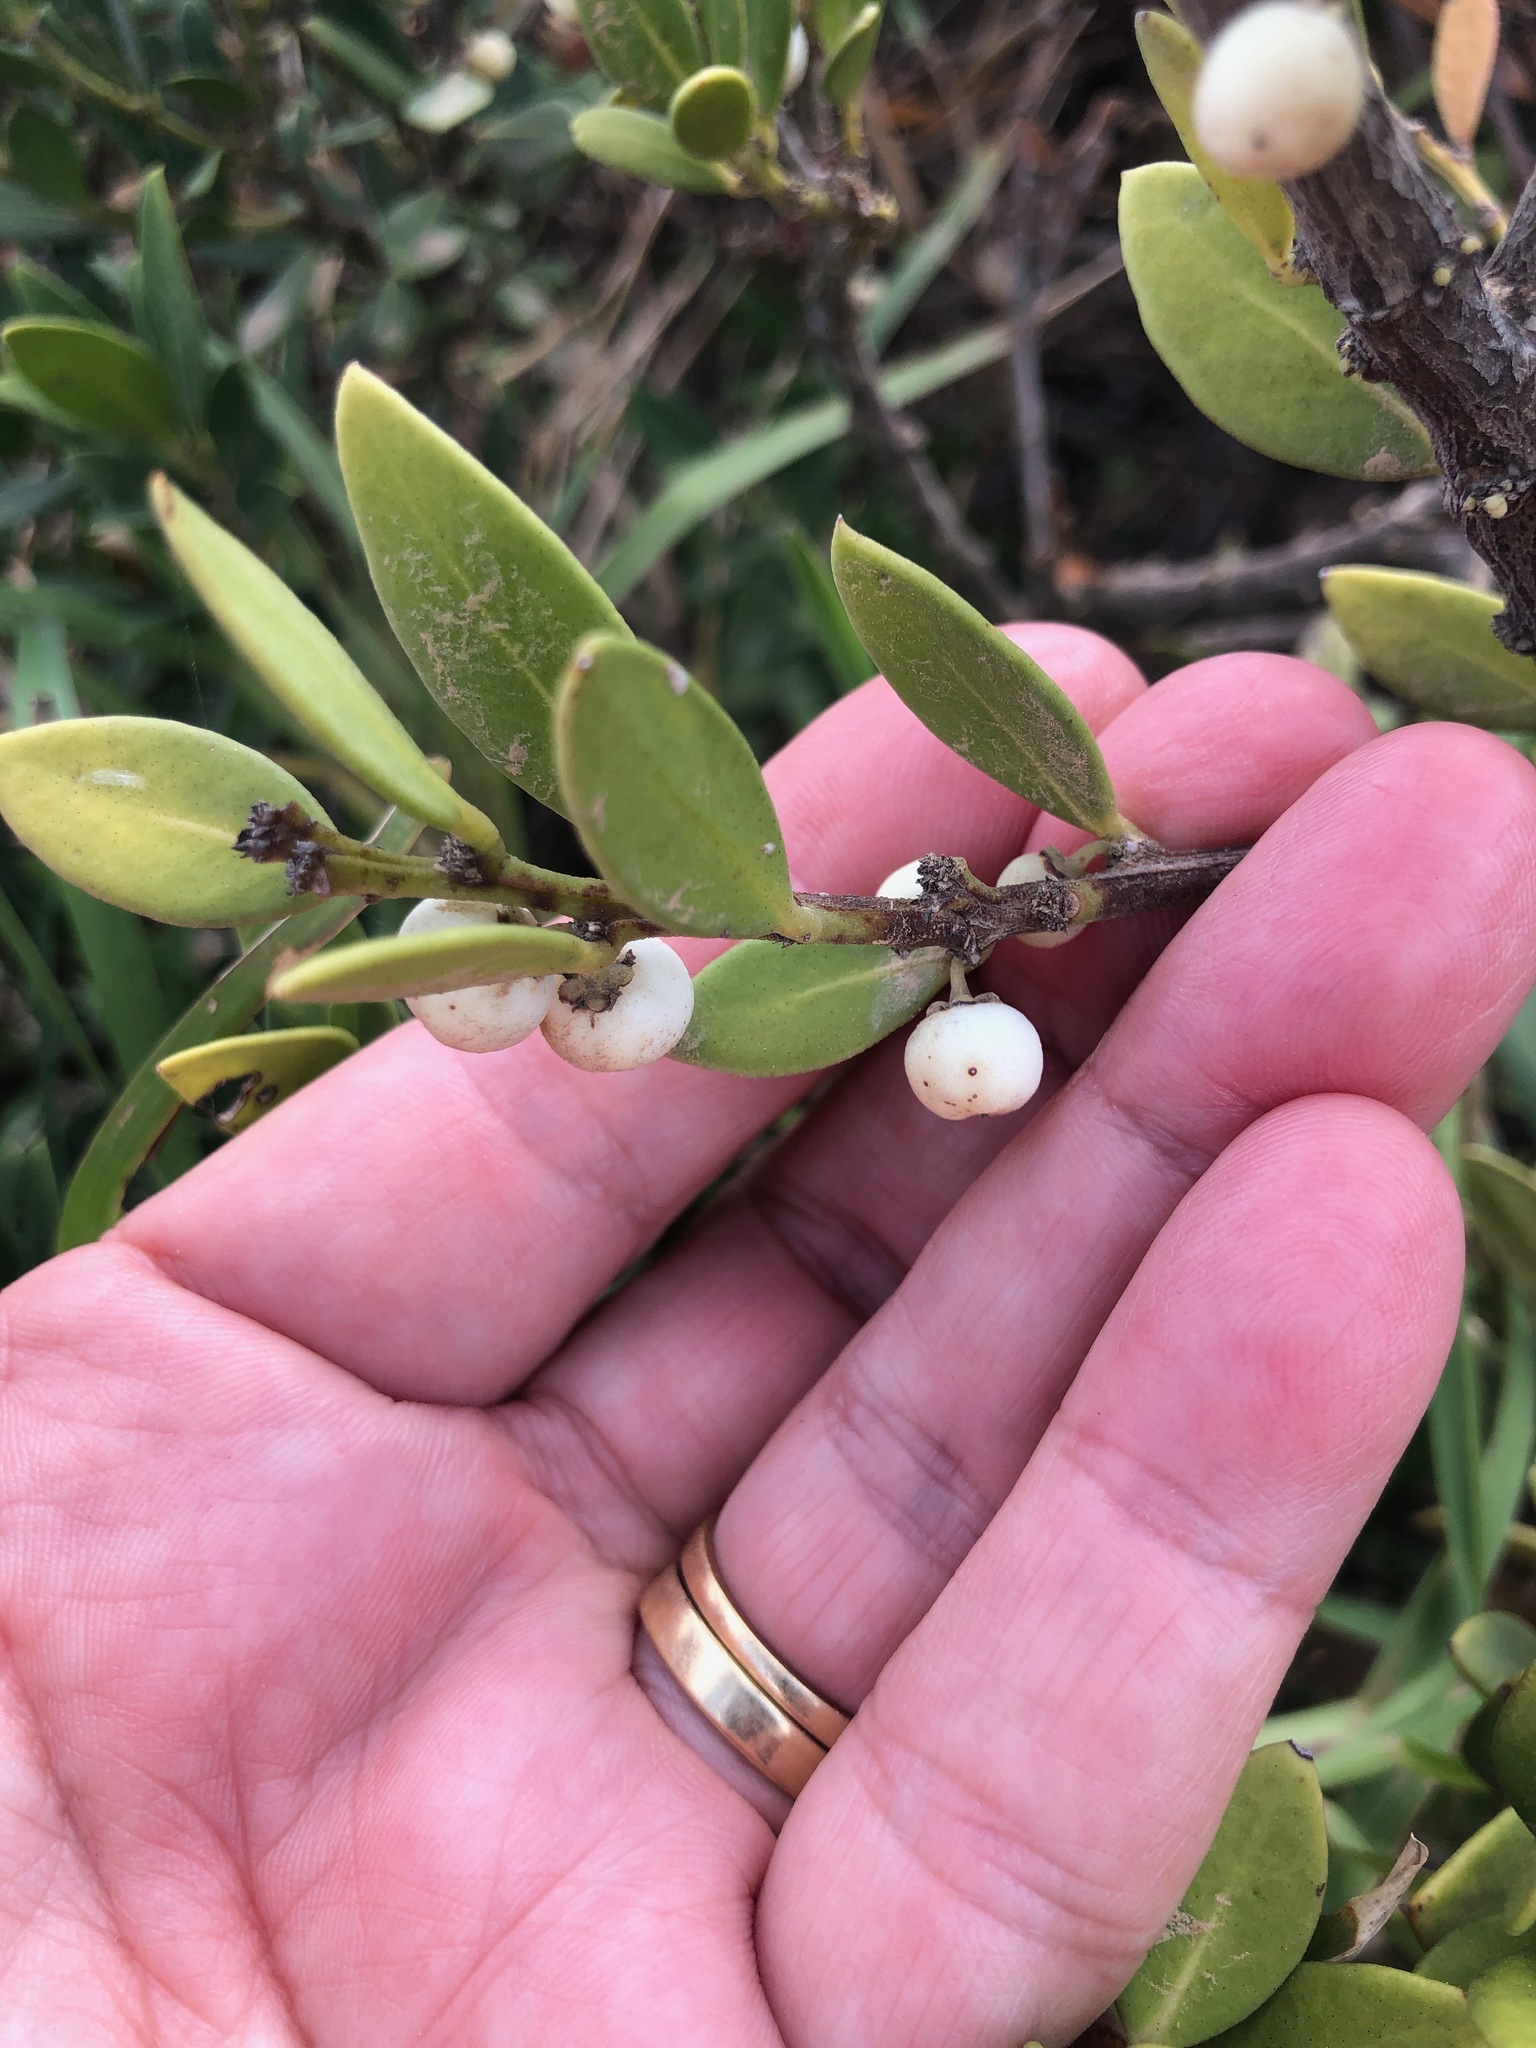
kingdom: Plantae
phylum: Tracheophyta
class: Magnoliopsida
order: Celastrales
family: Celastraceae
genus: Robsonodendron
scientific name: Robsonodendron maritimum
